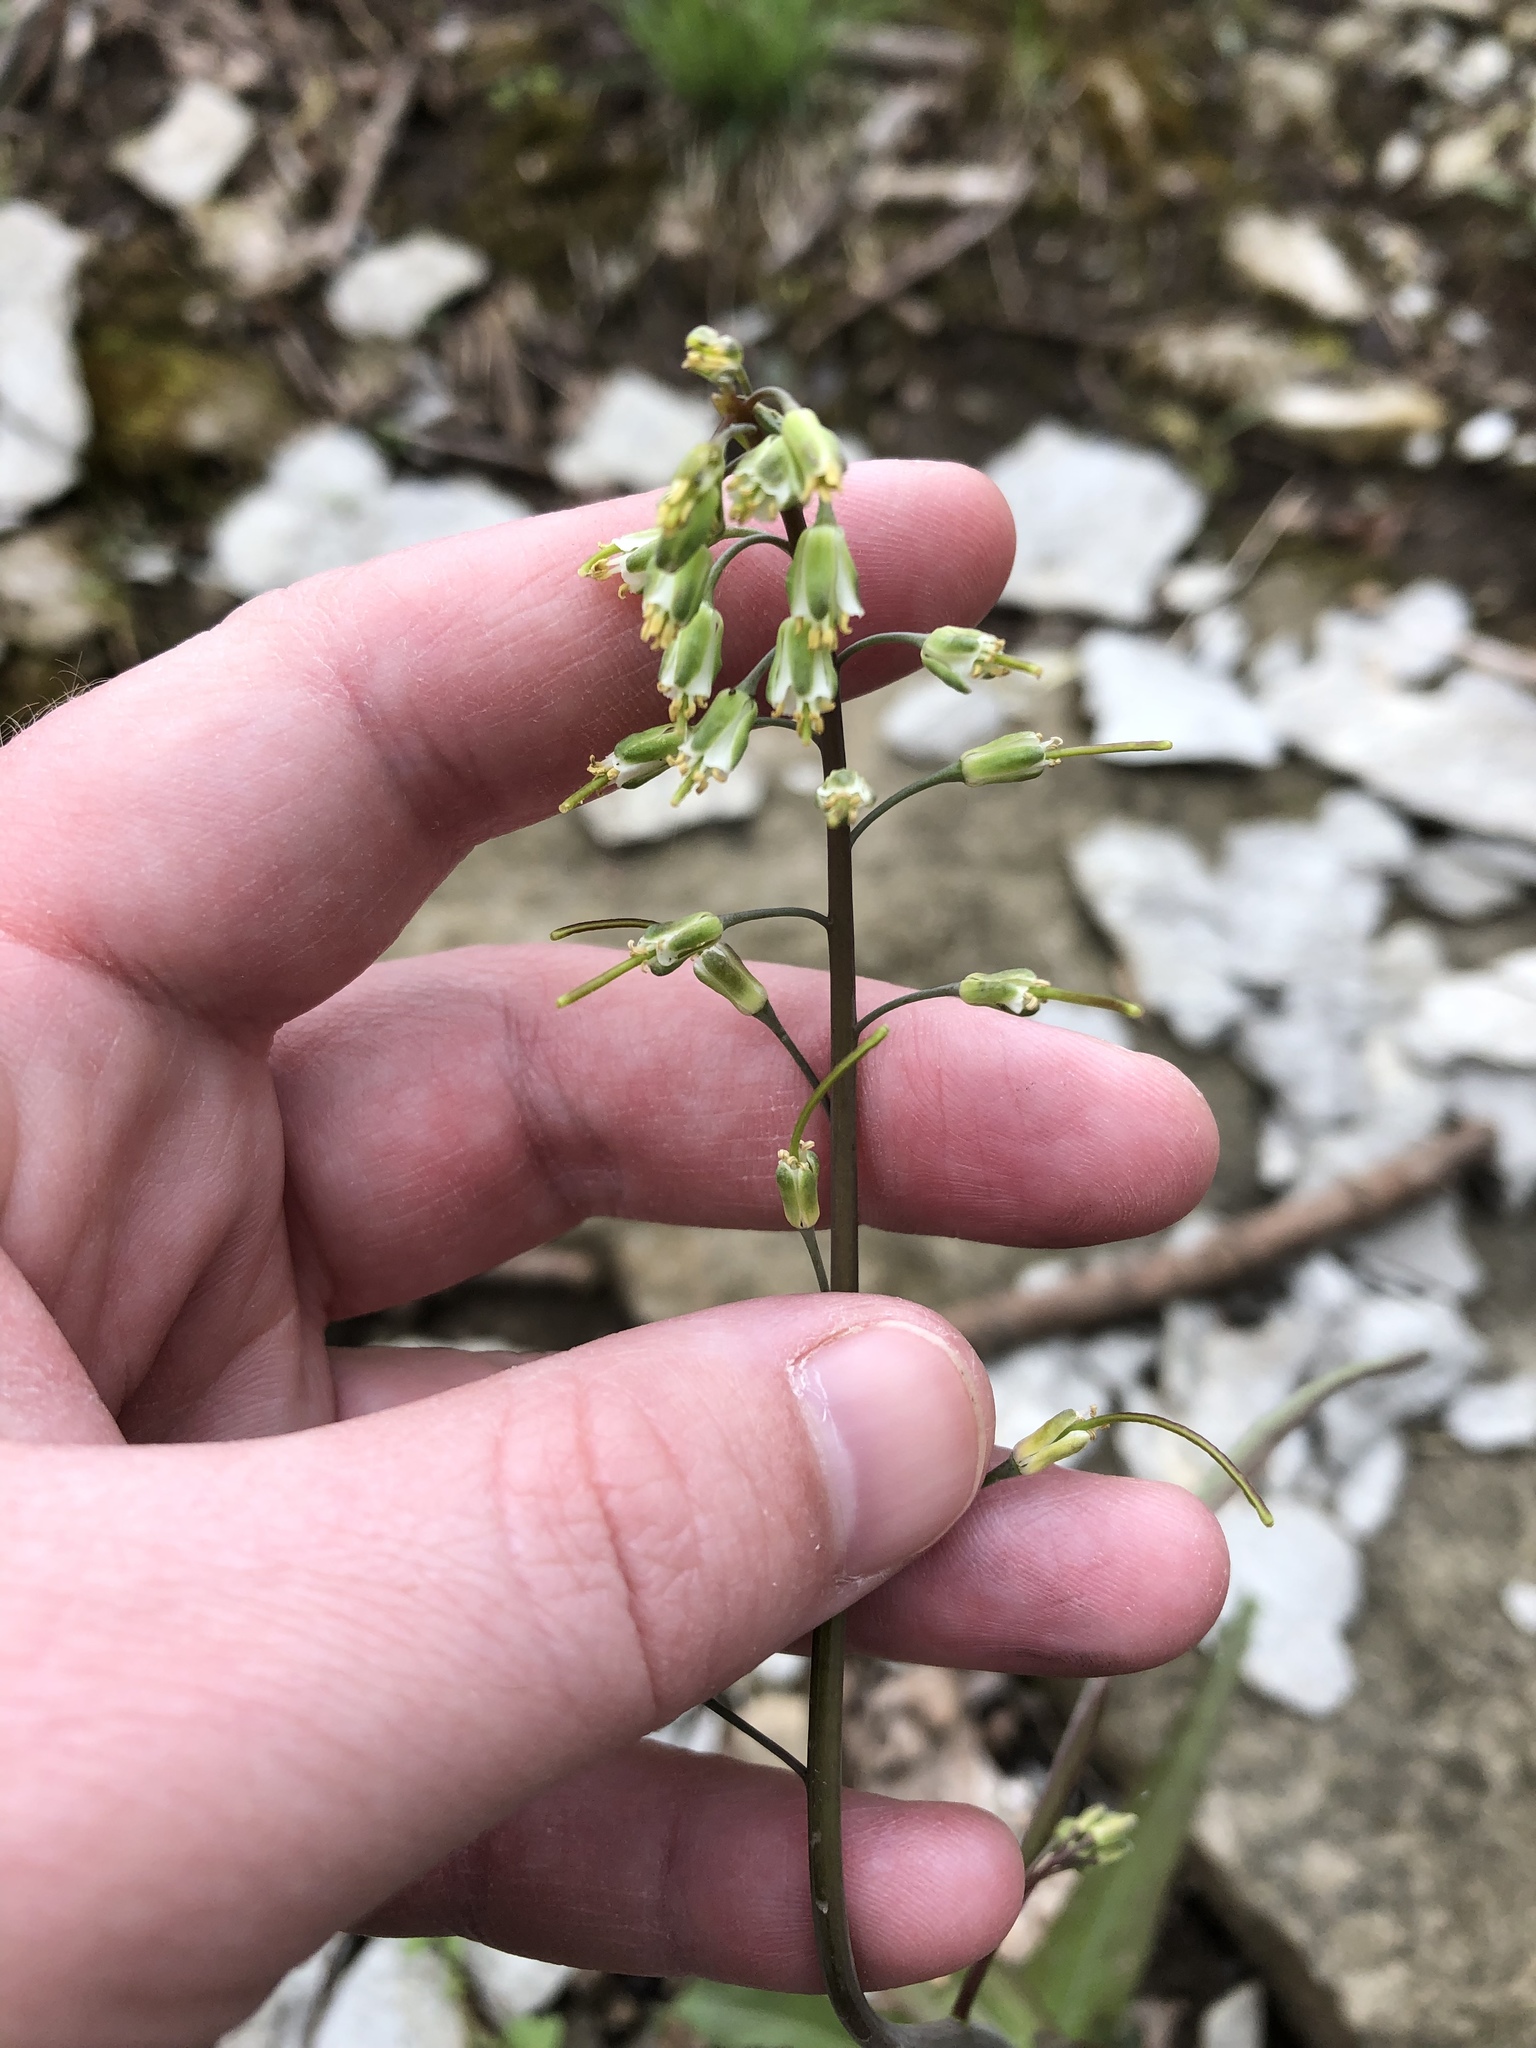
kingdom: Plantae
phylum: Tracheophyta
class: Magnoliopsida
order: Ranunculales
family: Berberidaceae
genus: Caulophyllum
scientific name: Caulophyllum thalictroides
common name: Blue cohosh
